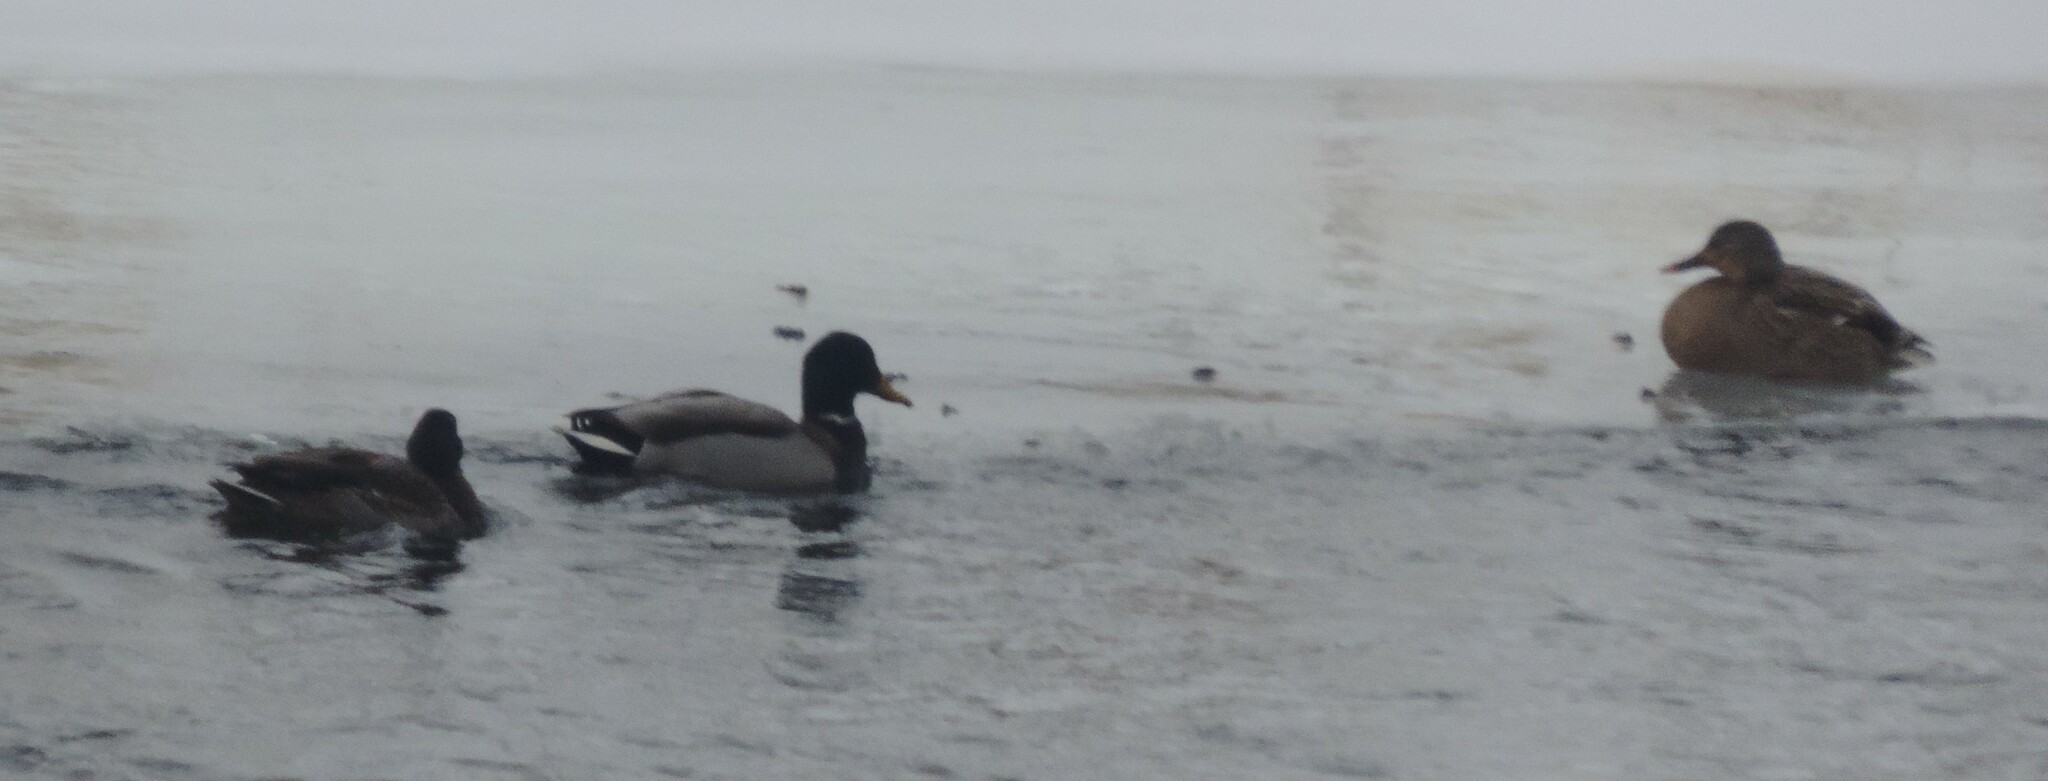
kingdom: Animalia
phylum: Chordata
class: Aves
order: Anseriformes
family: Anatidae
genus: Anas
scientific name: Anas platyrhynchos
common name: Mallard
